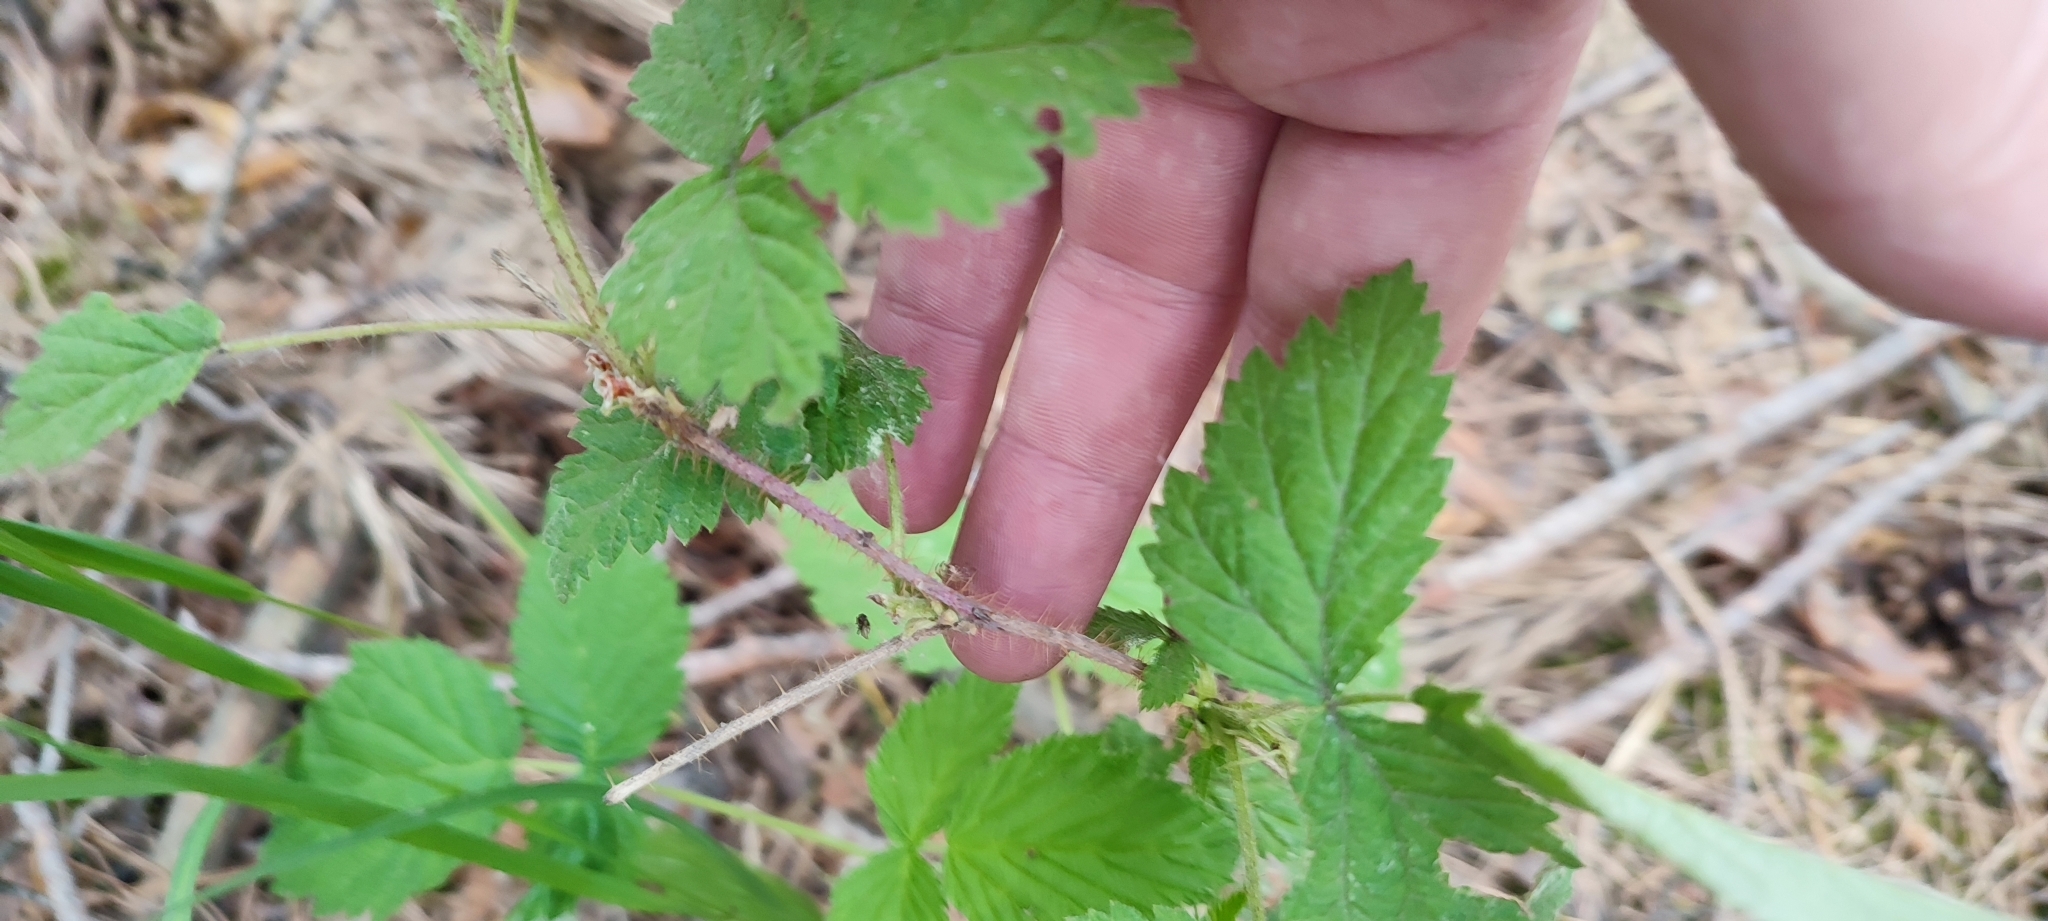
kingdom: Plantae
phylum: Tracheophyta
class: Magnoliopsida
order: Rosales
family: Rosaceae
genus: Rubus
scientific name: Rubus idaeus
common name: Raspberry
